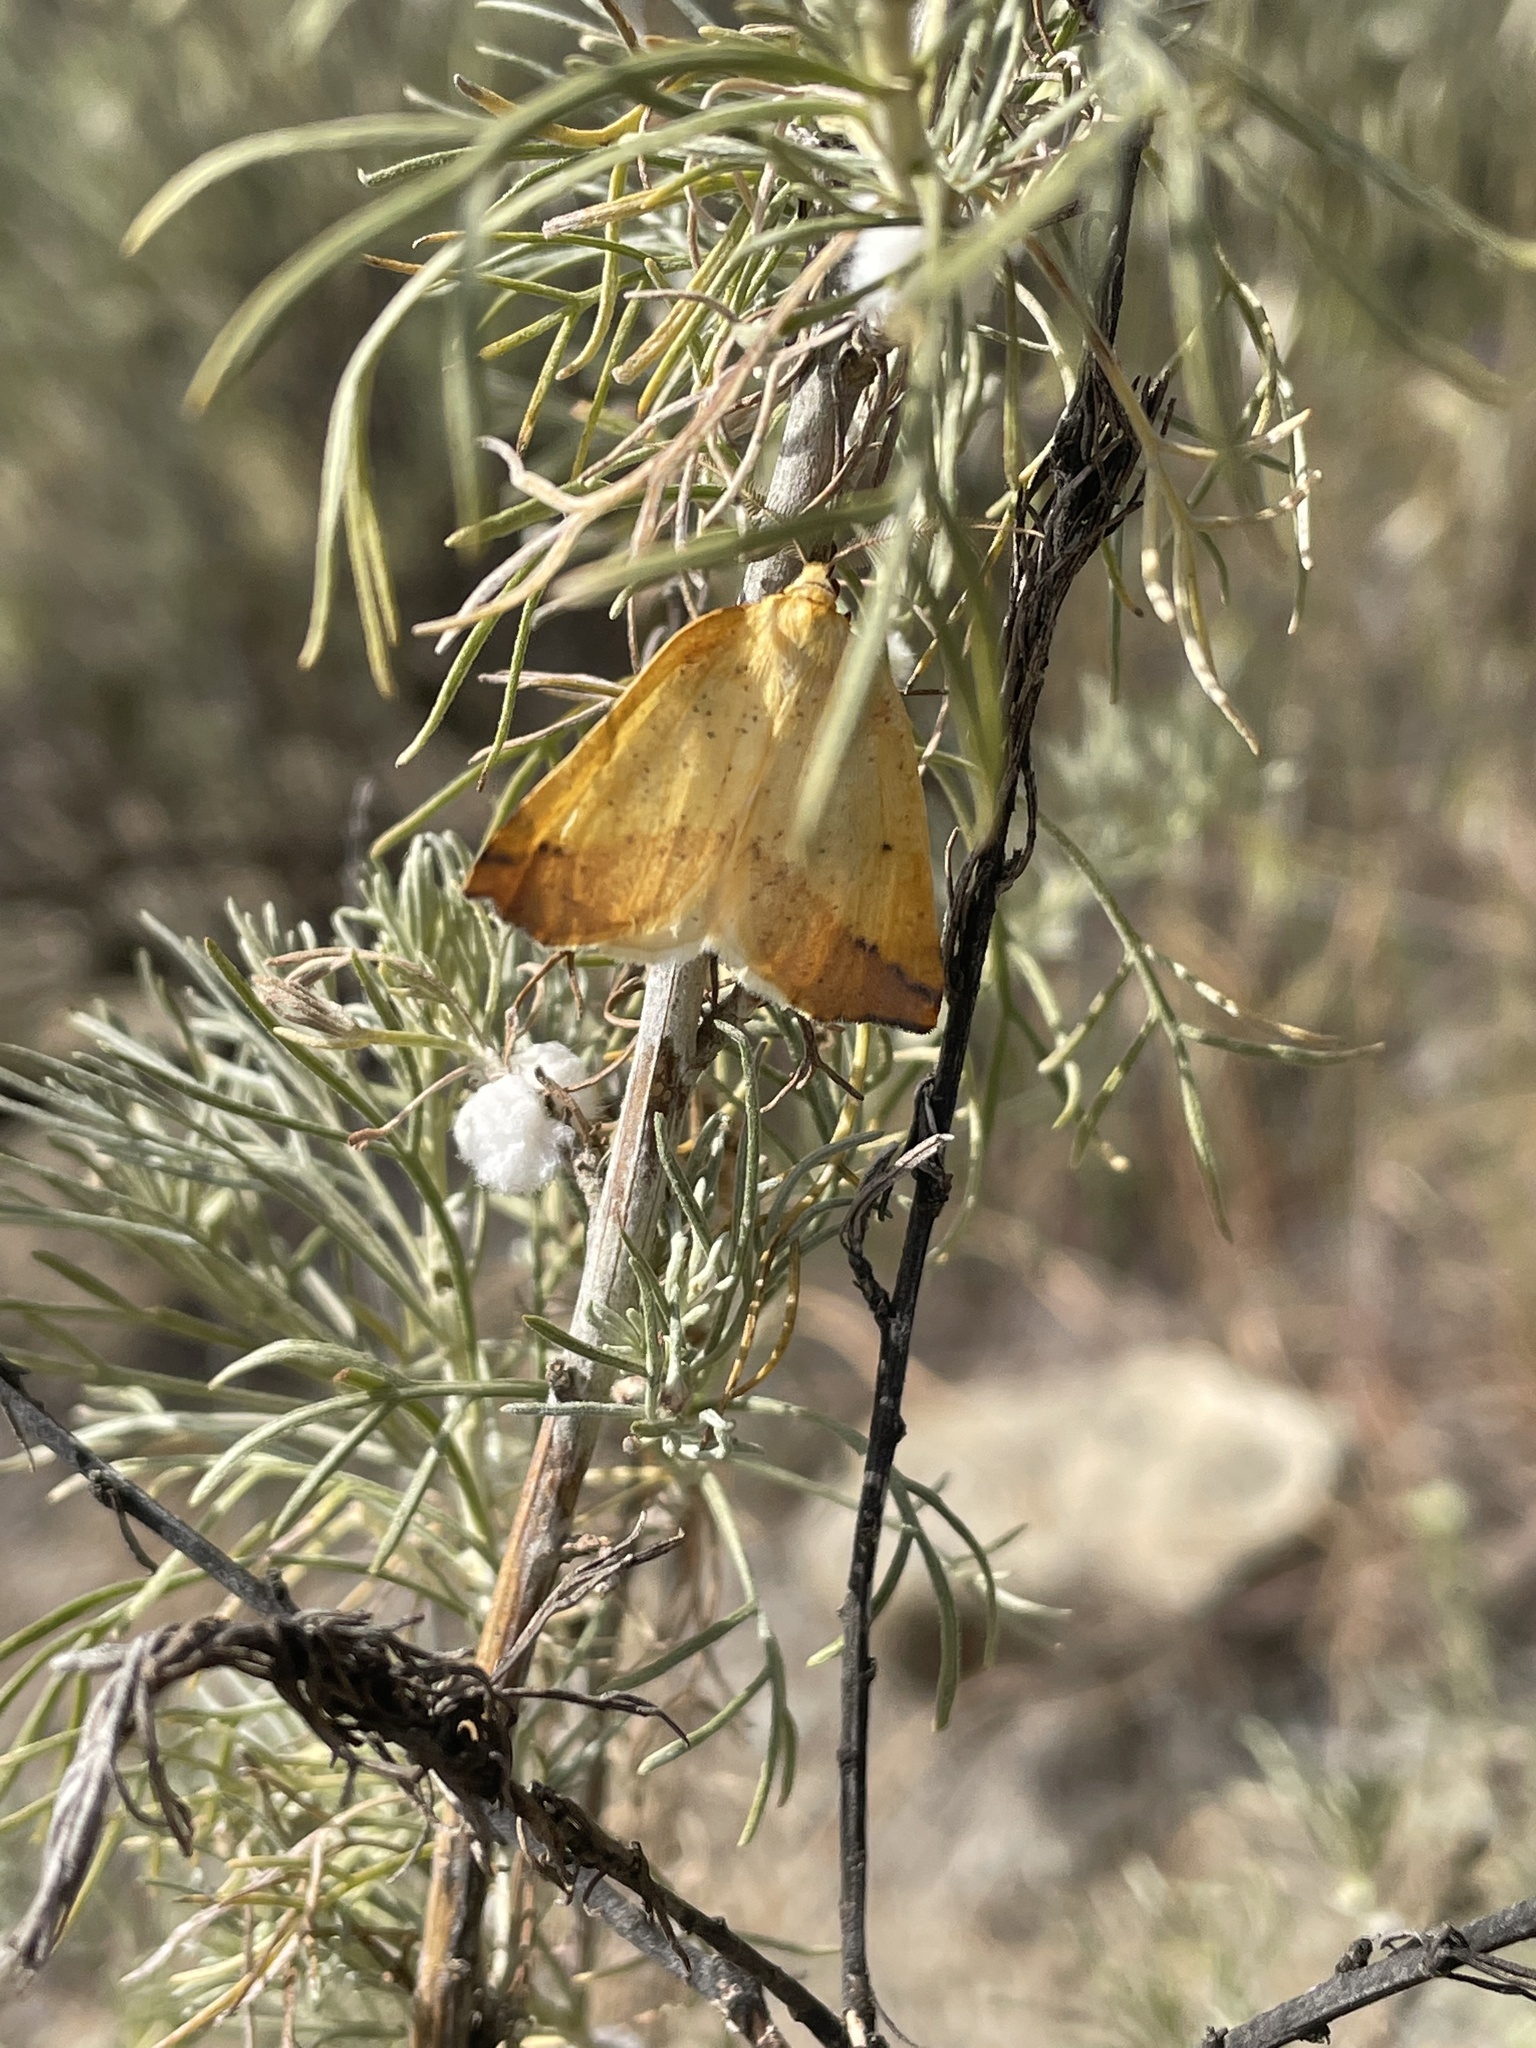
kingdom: Animalia
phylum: Arthropoda
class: Insecta
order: Lepidoptera
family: Geometridae
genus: Neoterpes
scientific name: Neoterpes edwardsata
